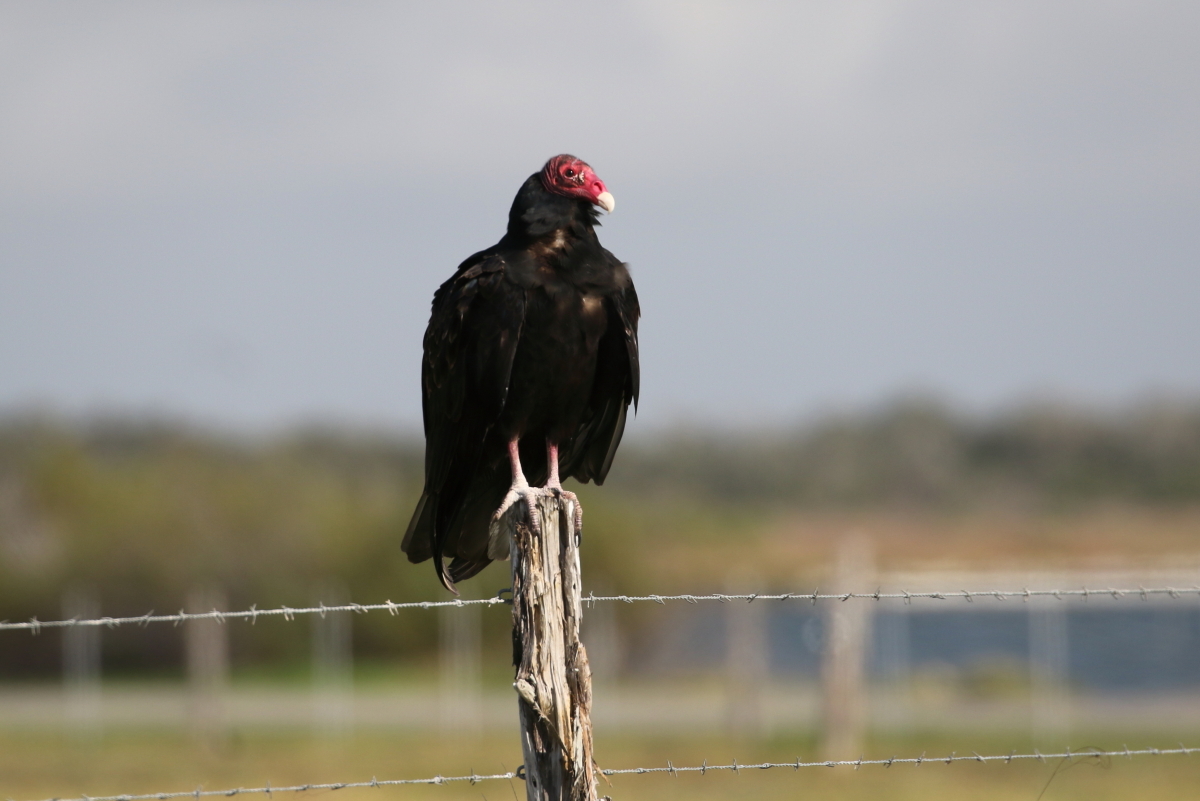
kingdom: Animalia
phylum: Chordata
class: Aves
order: Accipitriformes
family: Cathartidae
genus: Cathartes
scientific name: Cathartes aura
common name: Turkey vulture
